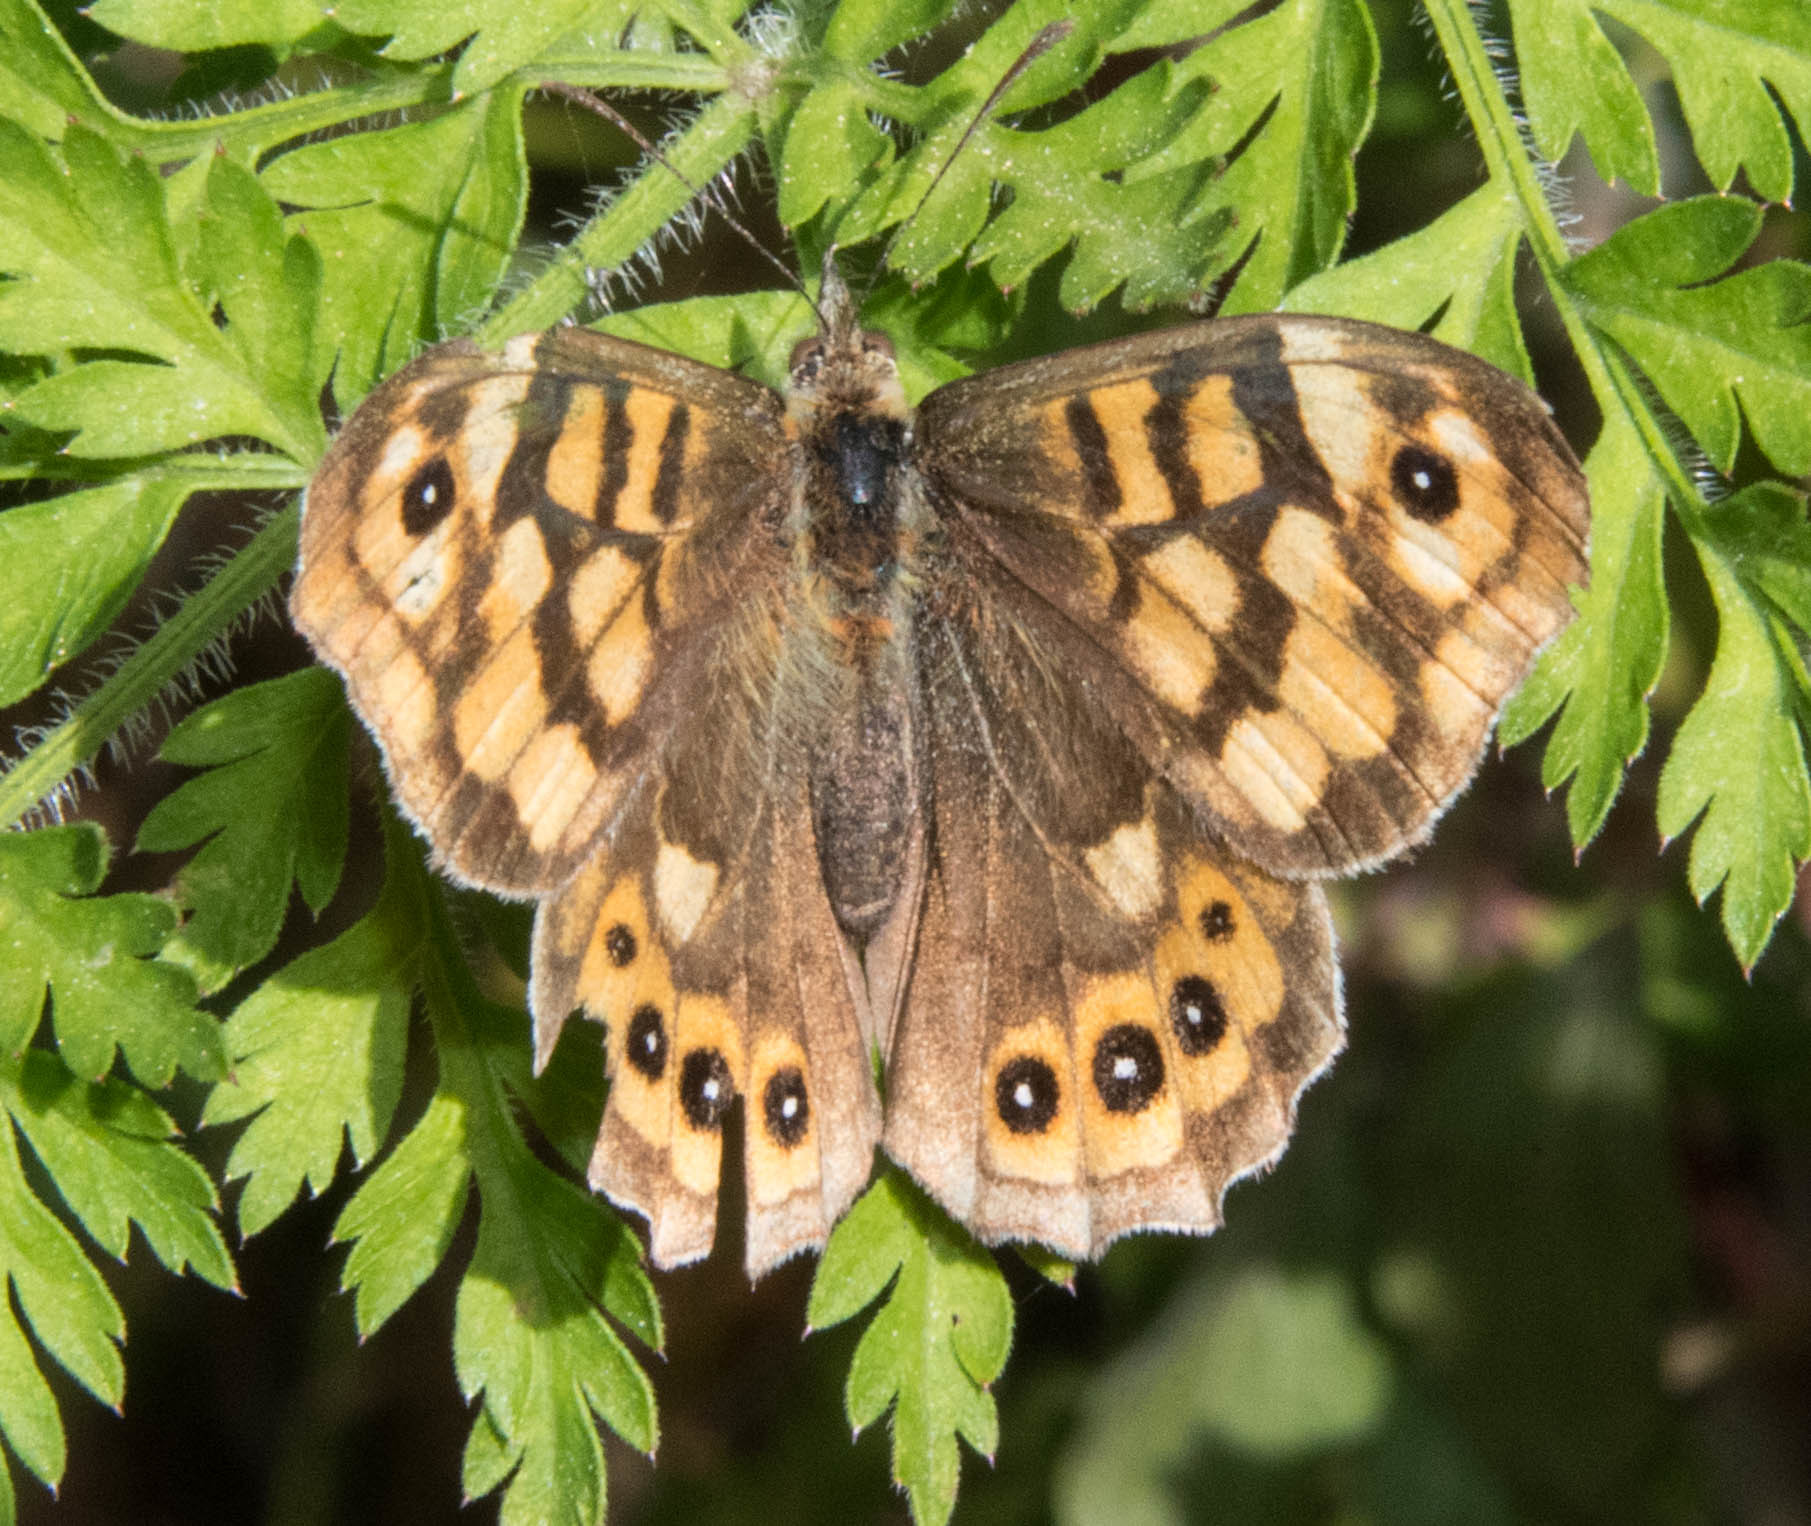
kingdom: Animalia
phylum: Arthropoda
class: Insecta
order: Lepidoptera
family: Nymphalidae
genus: Pararge
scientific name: Pararge aegeria
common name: Speckled wood
